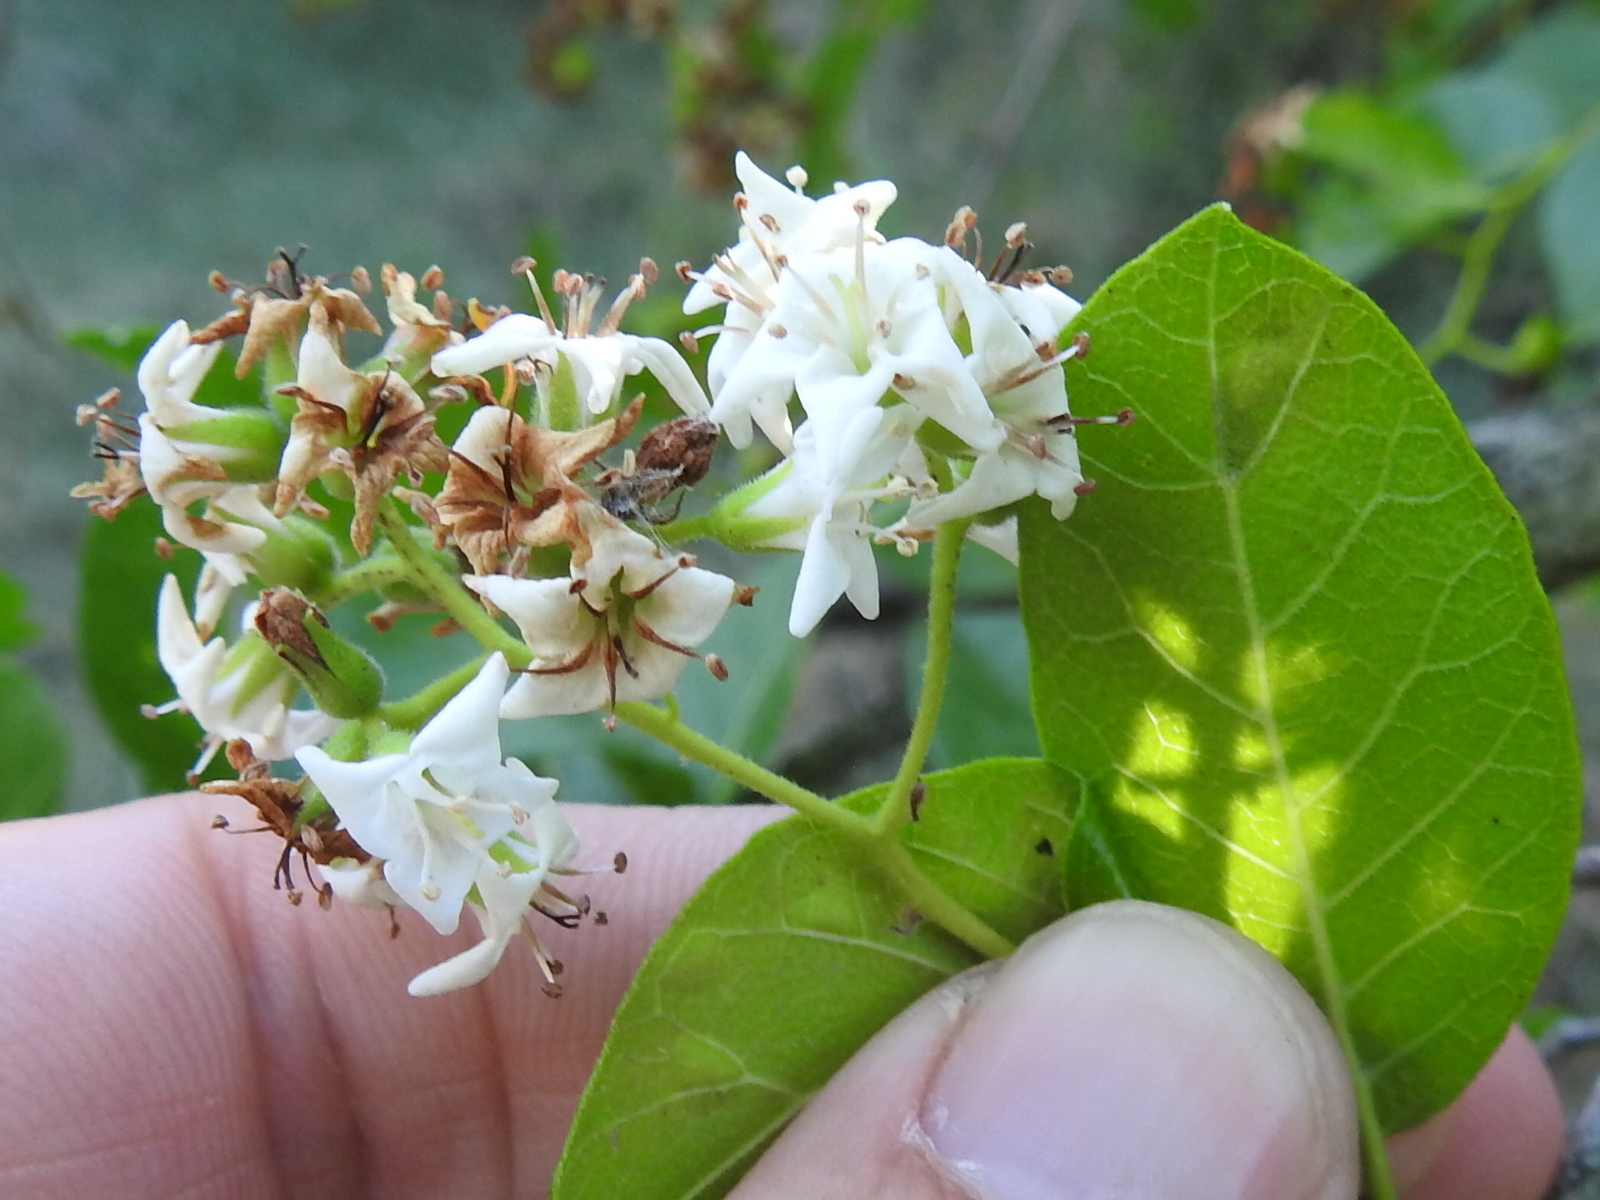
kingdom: Plantae
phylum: Tracheophyta
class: Magnoliopsida
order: Boraginales
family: Ehretiaceae
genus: Ehretia
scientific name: Ehretia anacua
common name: Sugarberry
